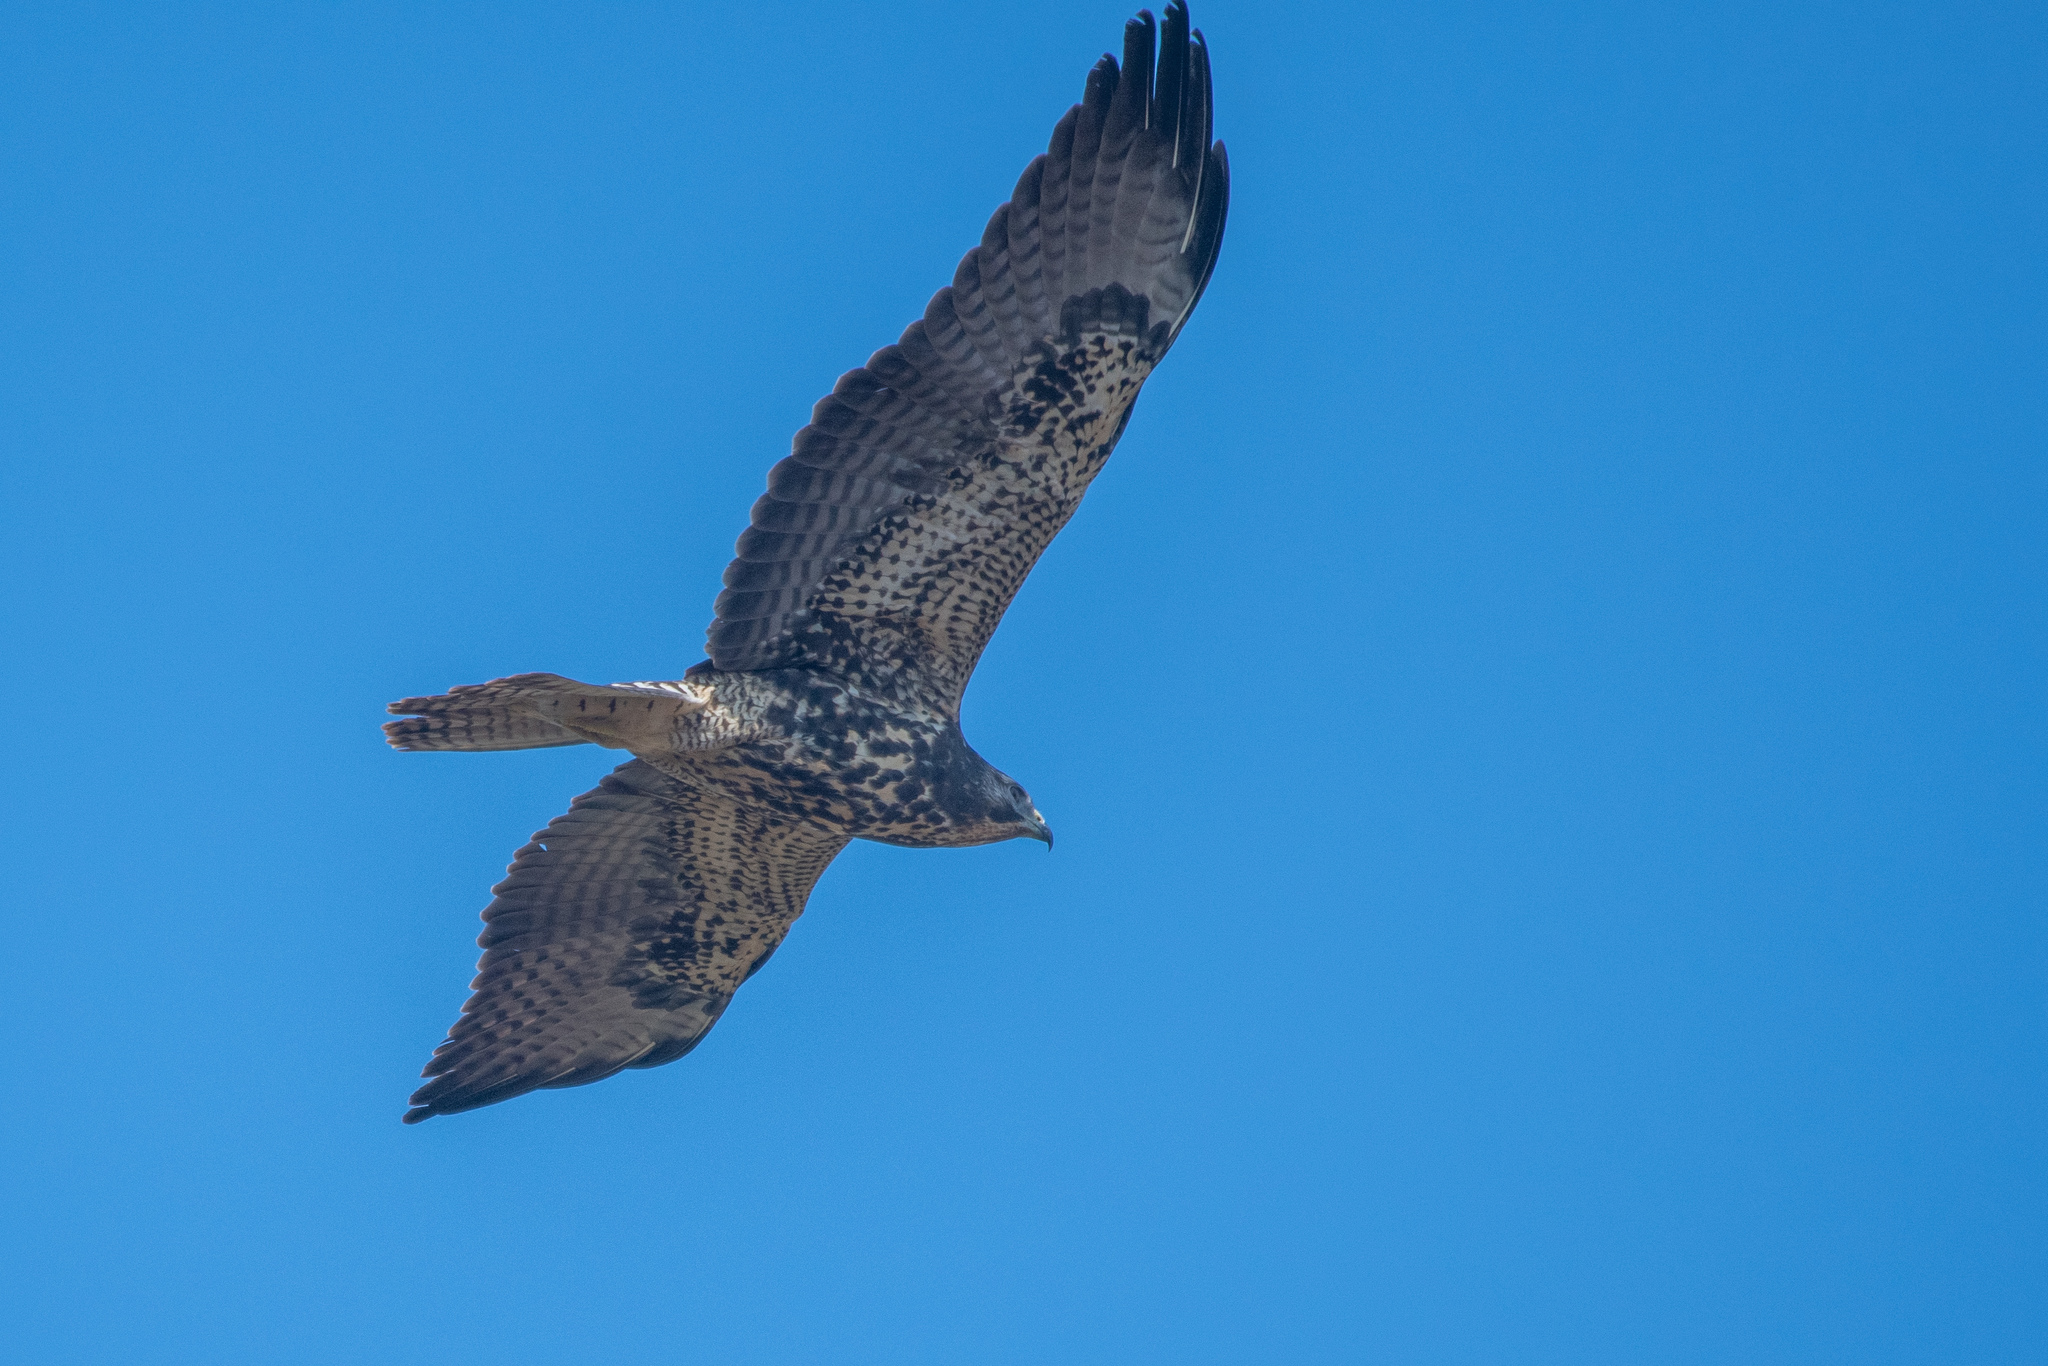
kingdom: Animalia
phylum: Chordata
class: Aves
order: Accipitriformes
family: Accipitridae
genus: Buteo
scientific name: Buteo swainsoni
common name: Swainson's hawk
